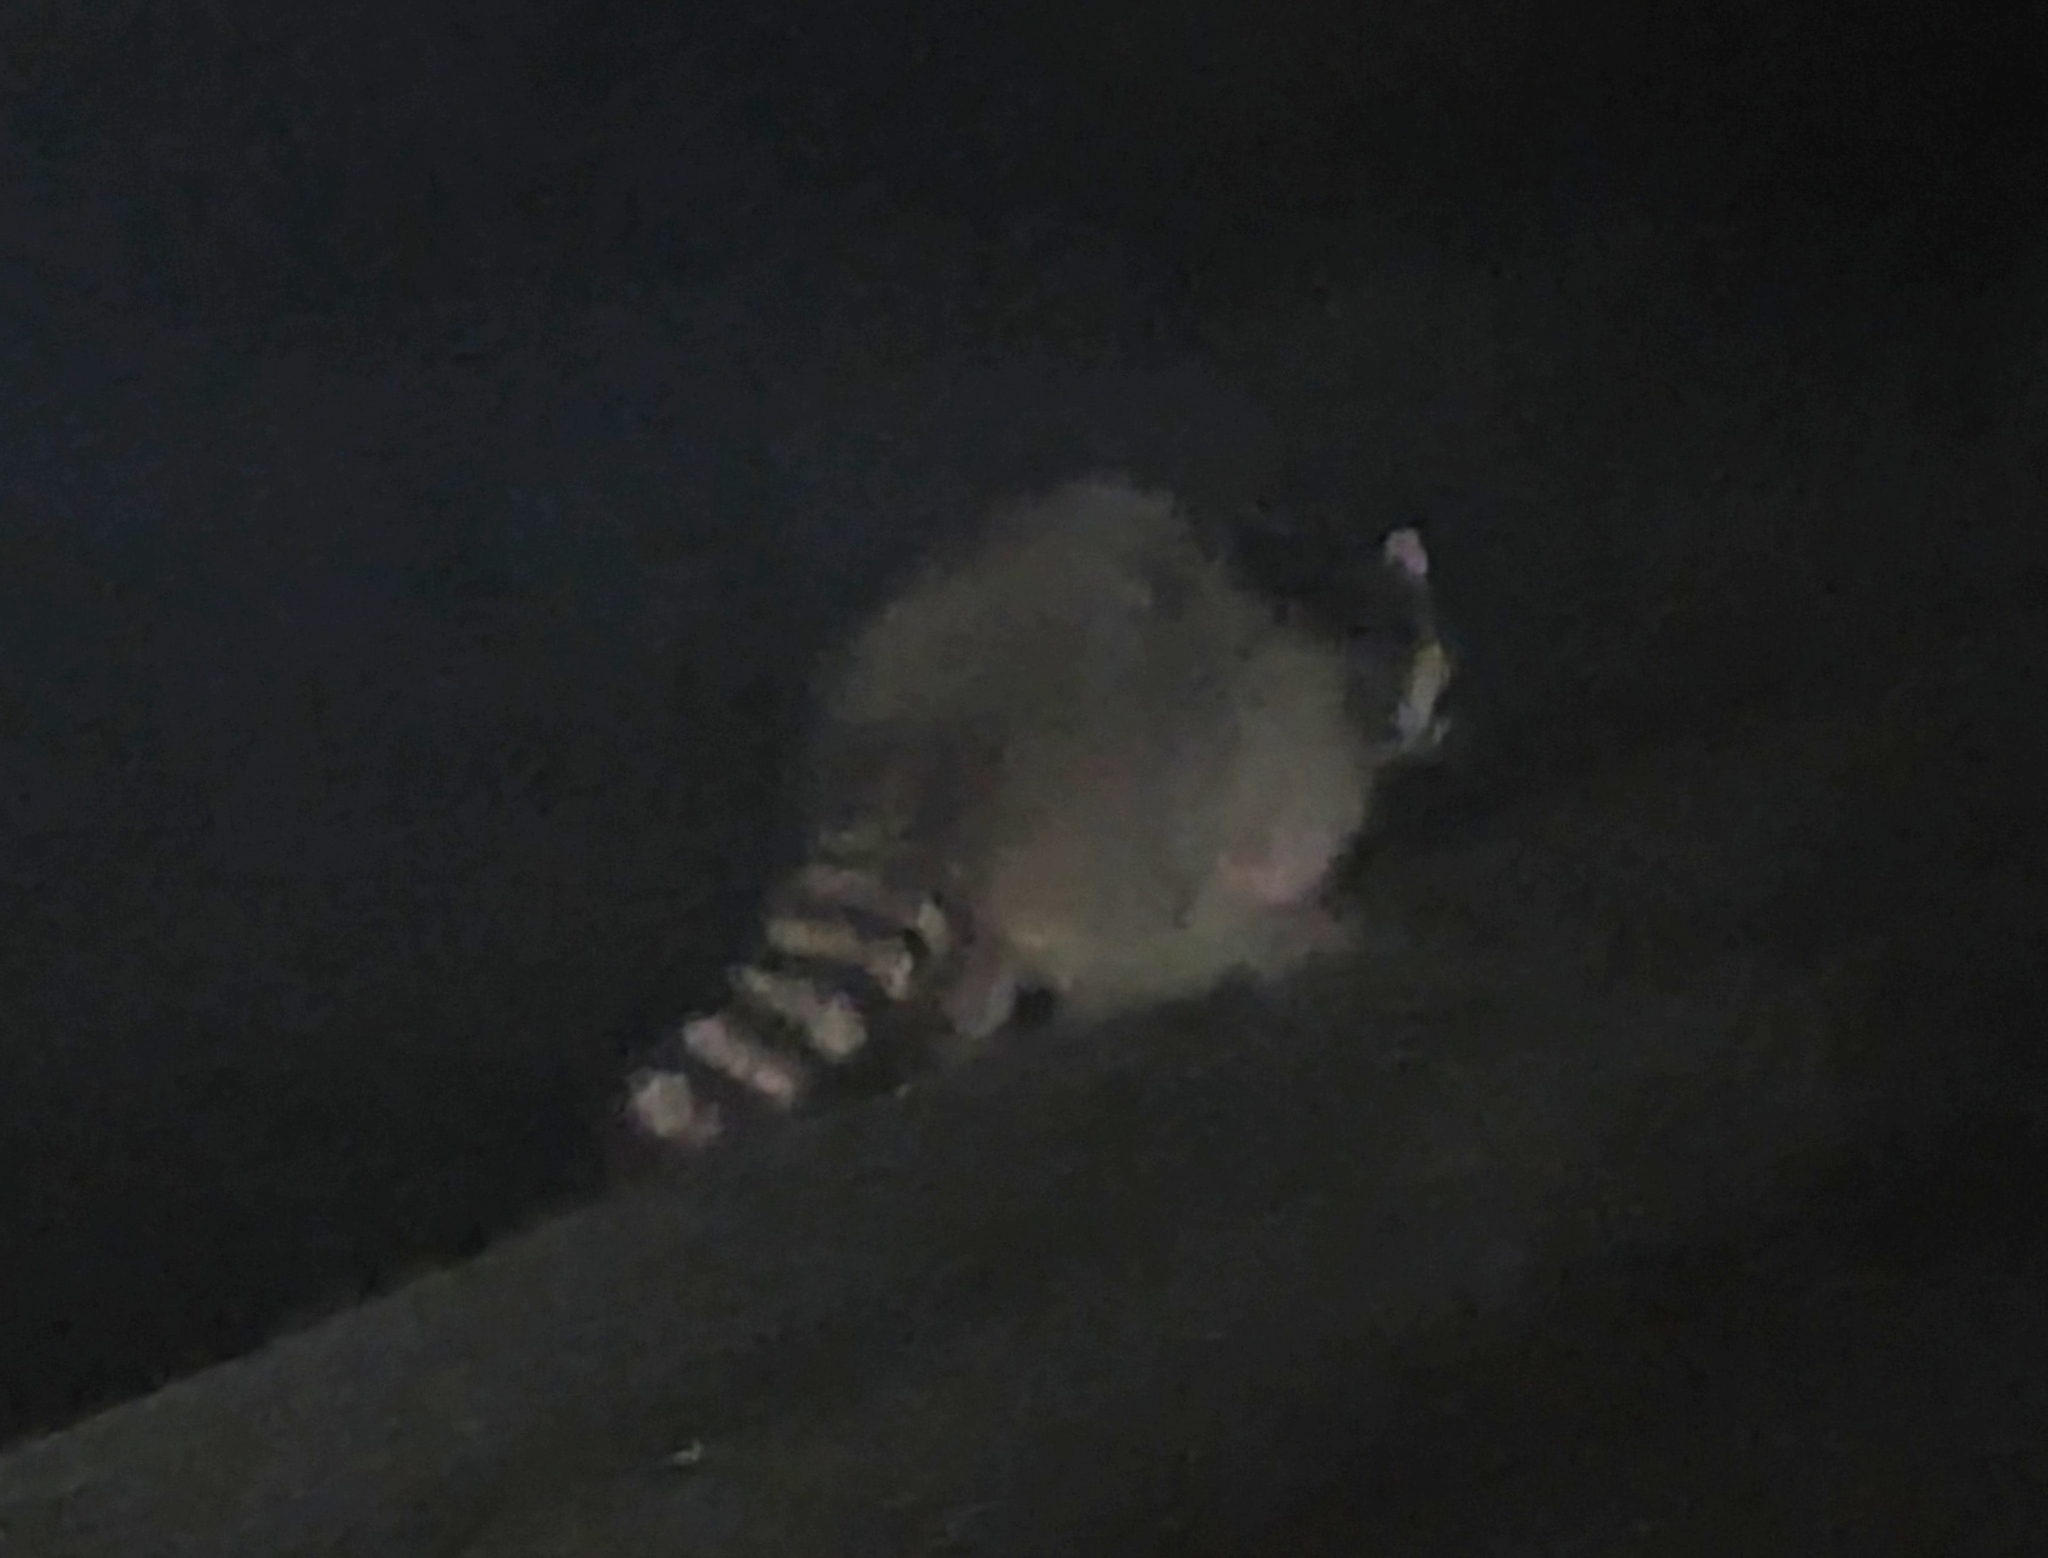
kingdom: Animalia
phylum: Chordata
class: Mammalia
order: Carnivora
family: Procyonidae
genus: Procyon
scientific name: Procyon lotor
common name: Raccoon
